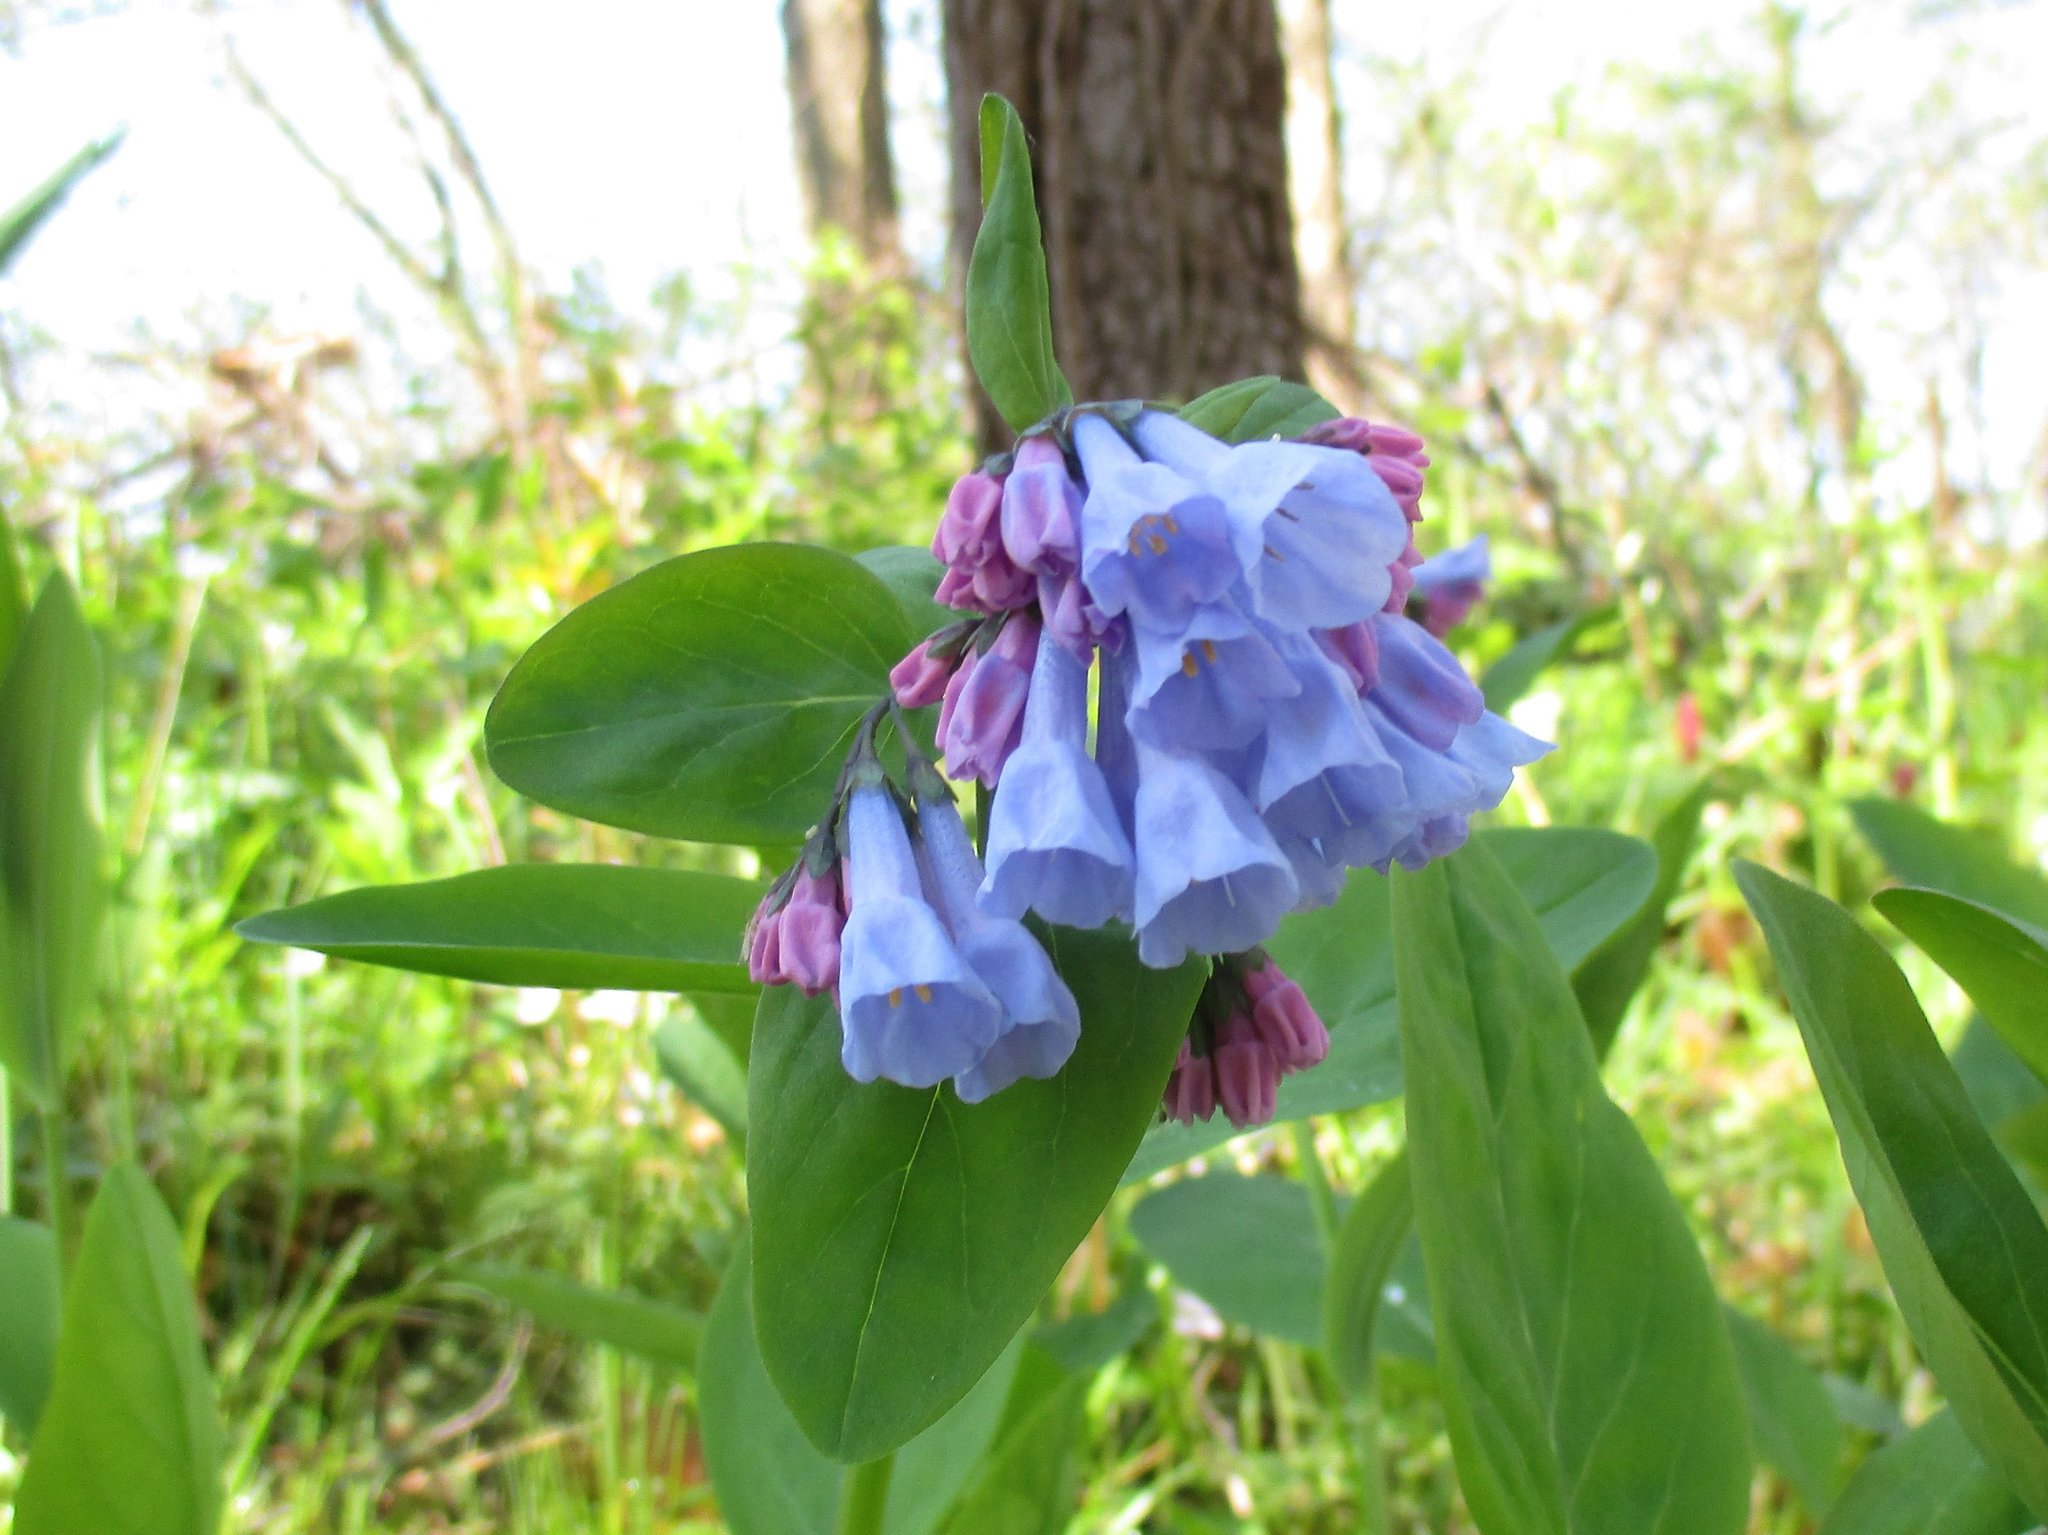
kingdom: Plantae
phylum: Tracheophyta
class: Magnoliopsida
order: Boraginales
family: Boraginaceae
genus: Mertensia
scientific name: Mertensia virginica
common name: Virginia bluebells
